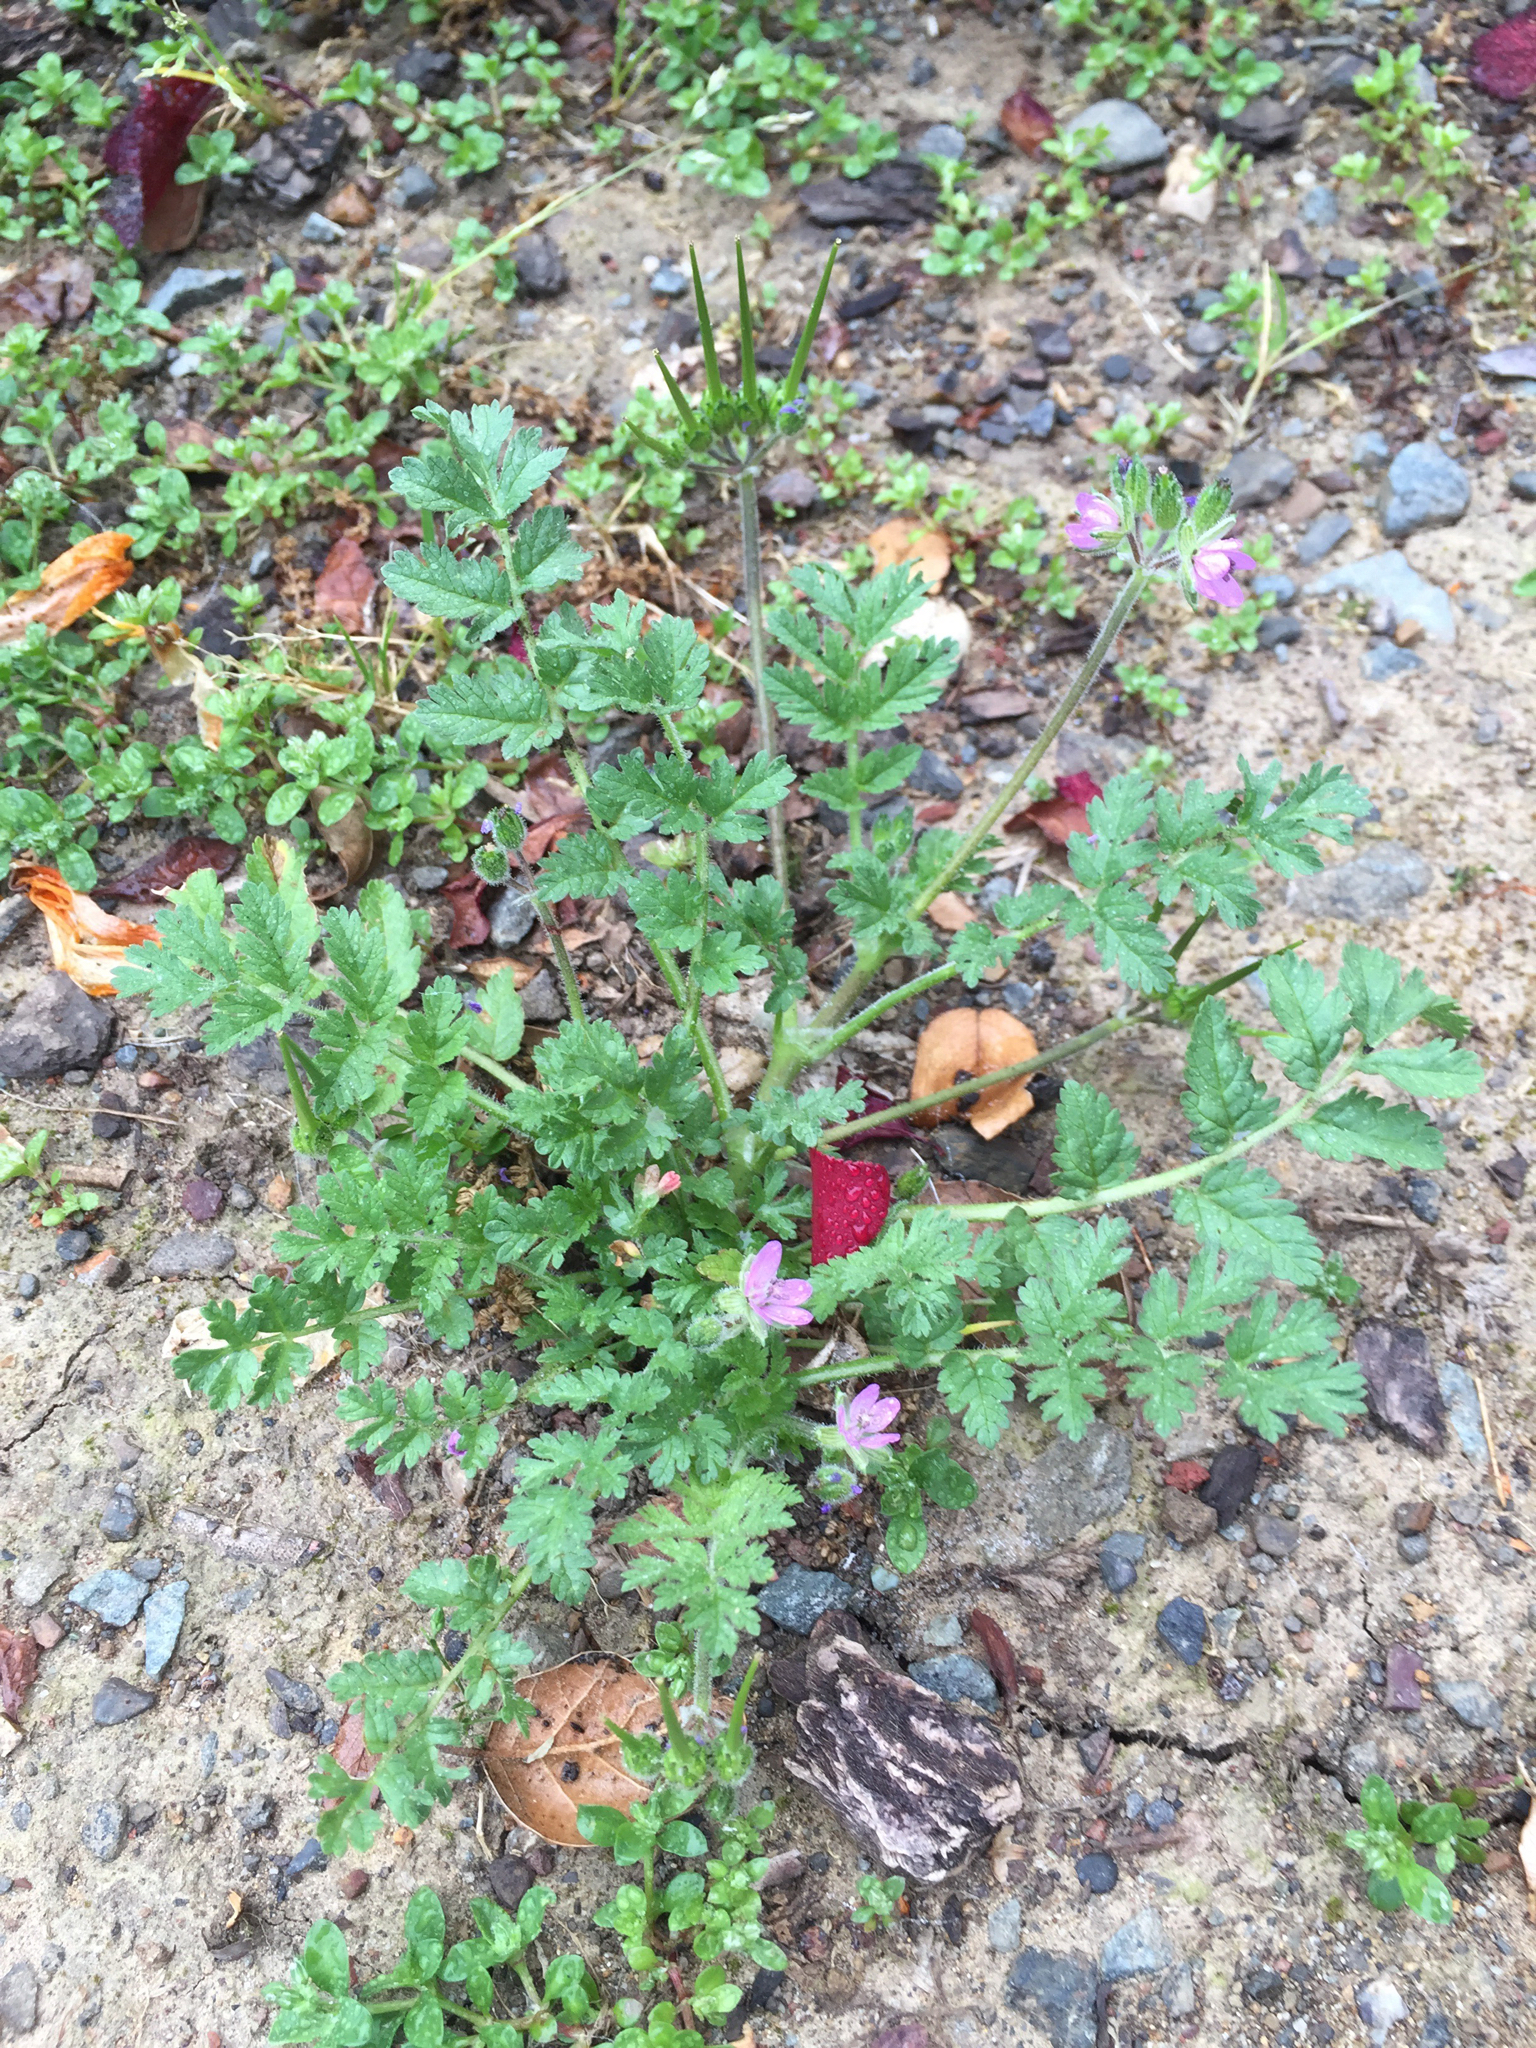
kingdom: Plantae
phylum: Tracheophyta
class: Magnoliopsida
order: Geraniales
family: Geraniaceae
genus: Erodium
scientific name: Erodium moschatum
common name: Musk stork's-bill
